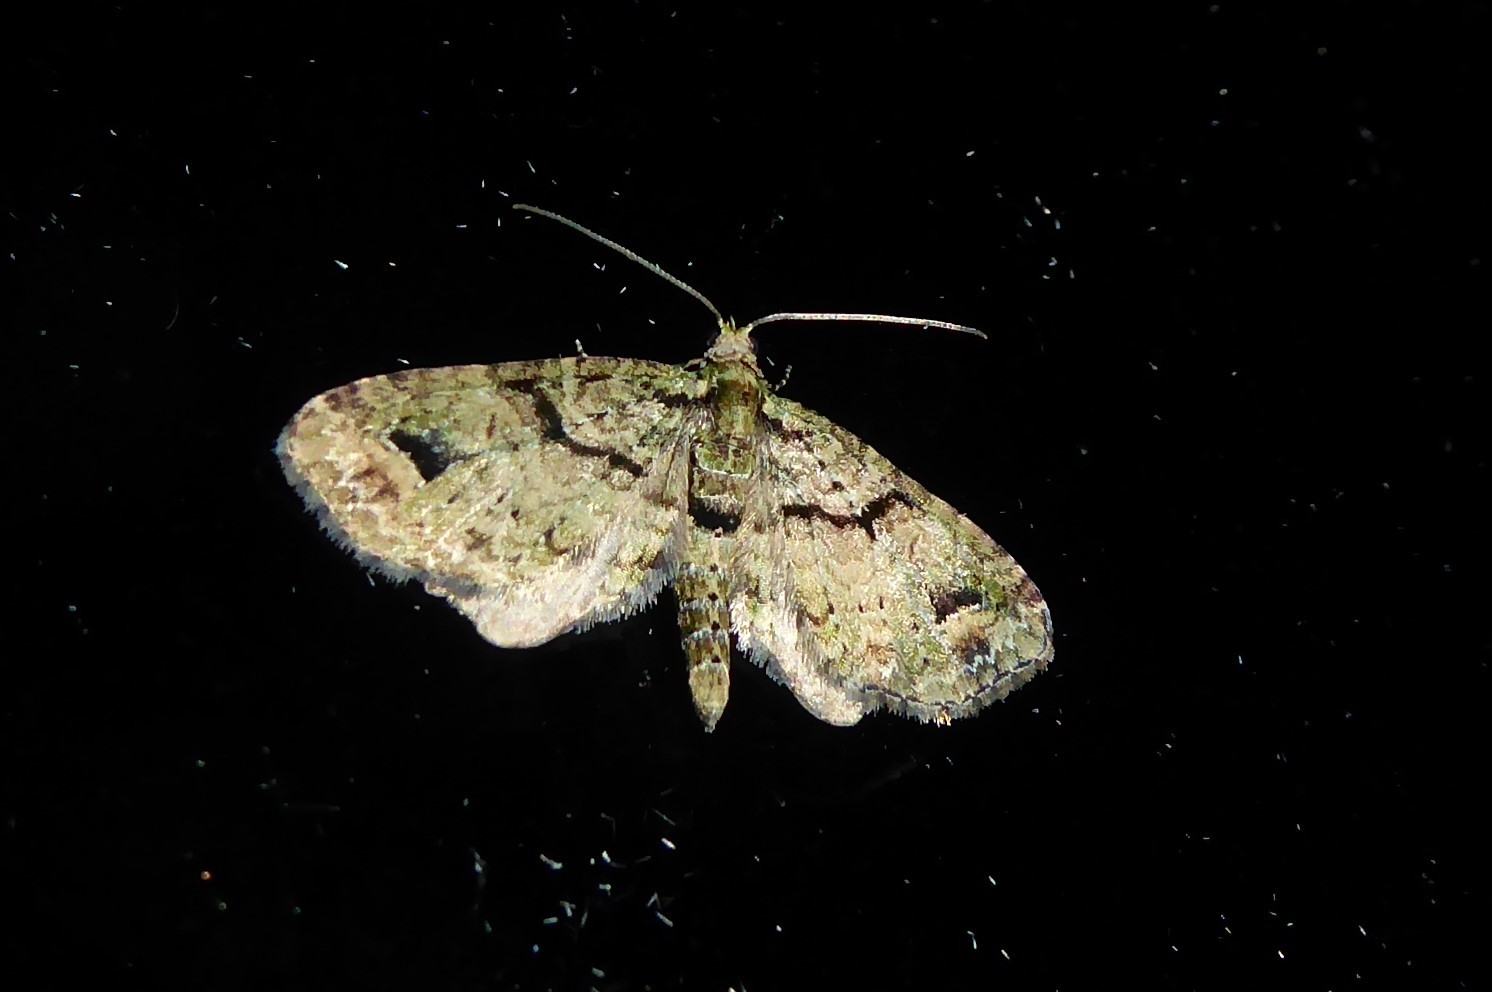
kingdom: Animalia
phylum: Arthropoda
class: Insecta
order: Lepidoptera
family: Geometridae
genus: Idaea
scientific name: Idaea mutanda
